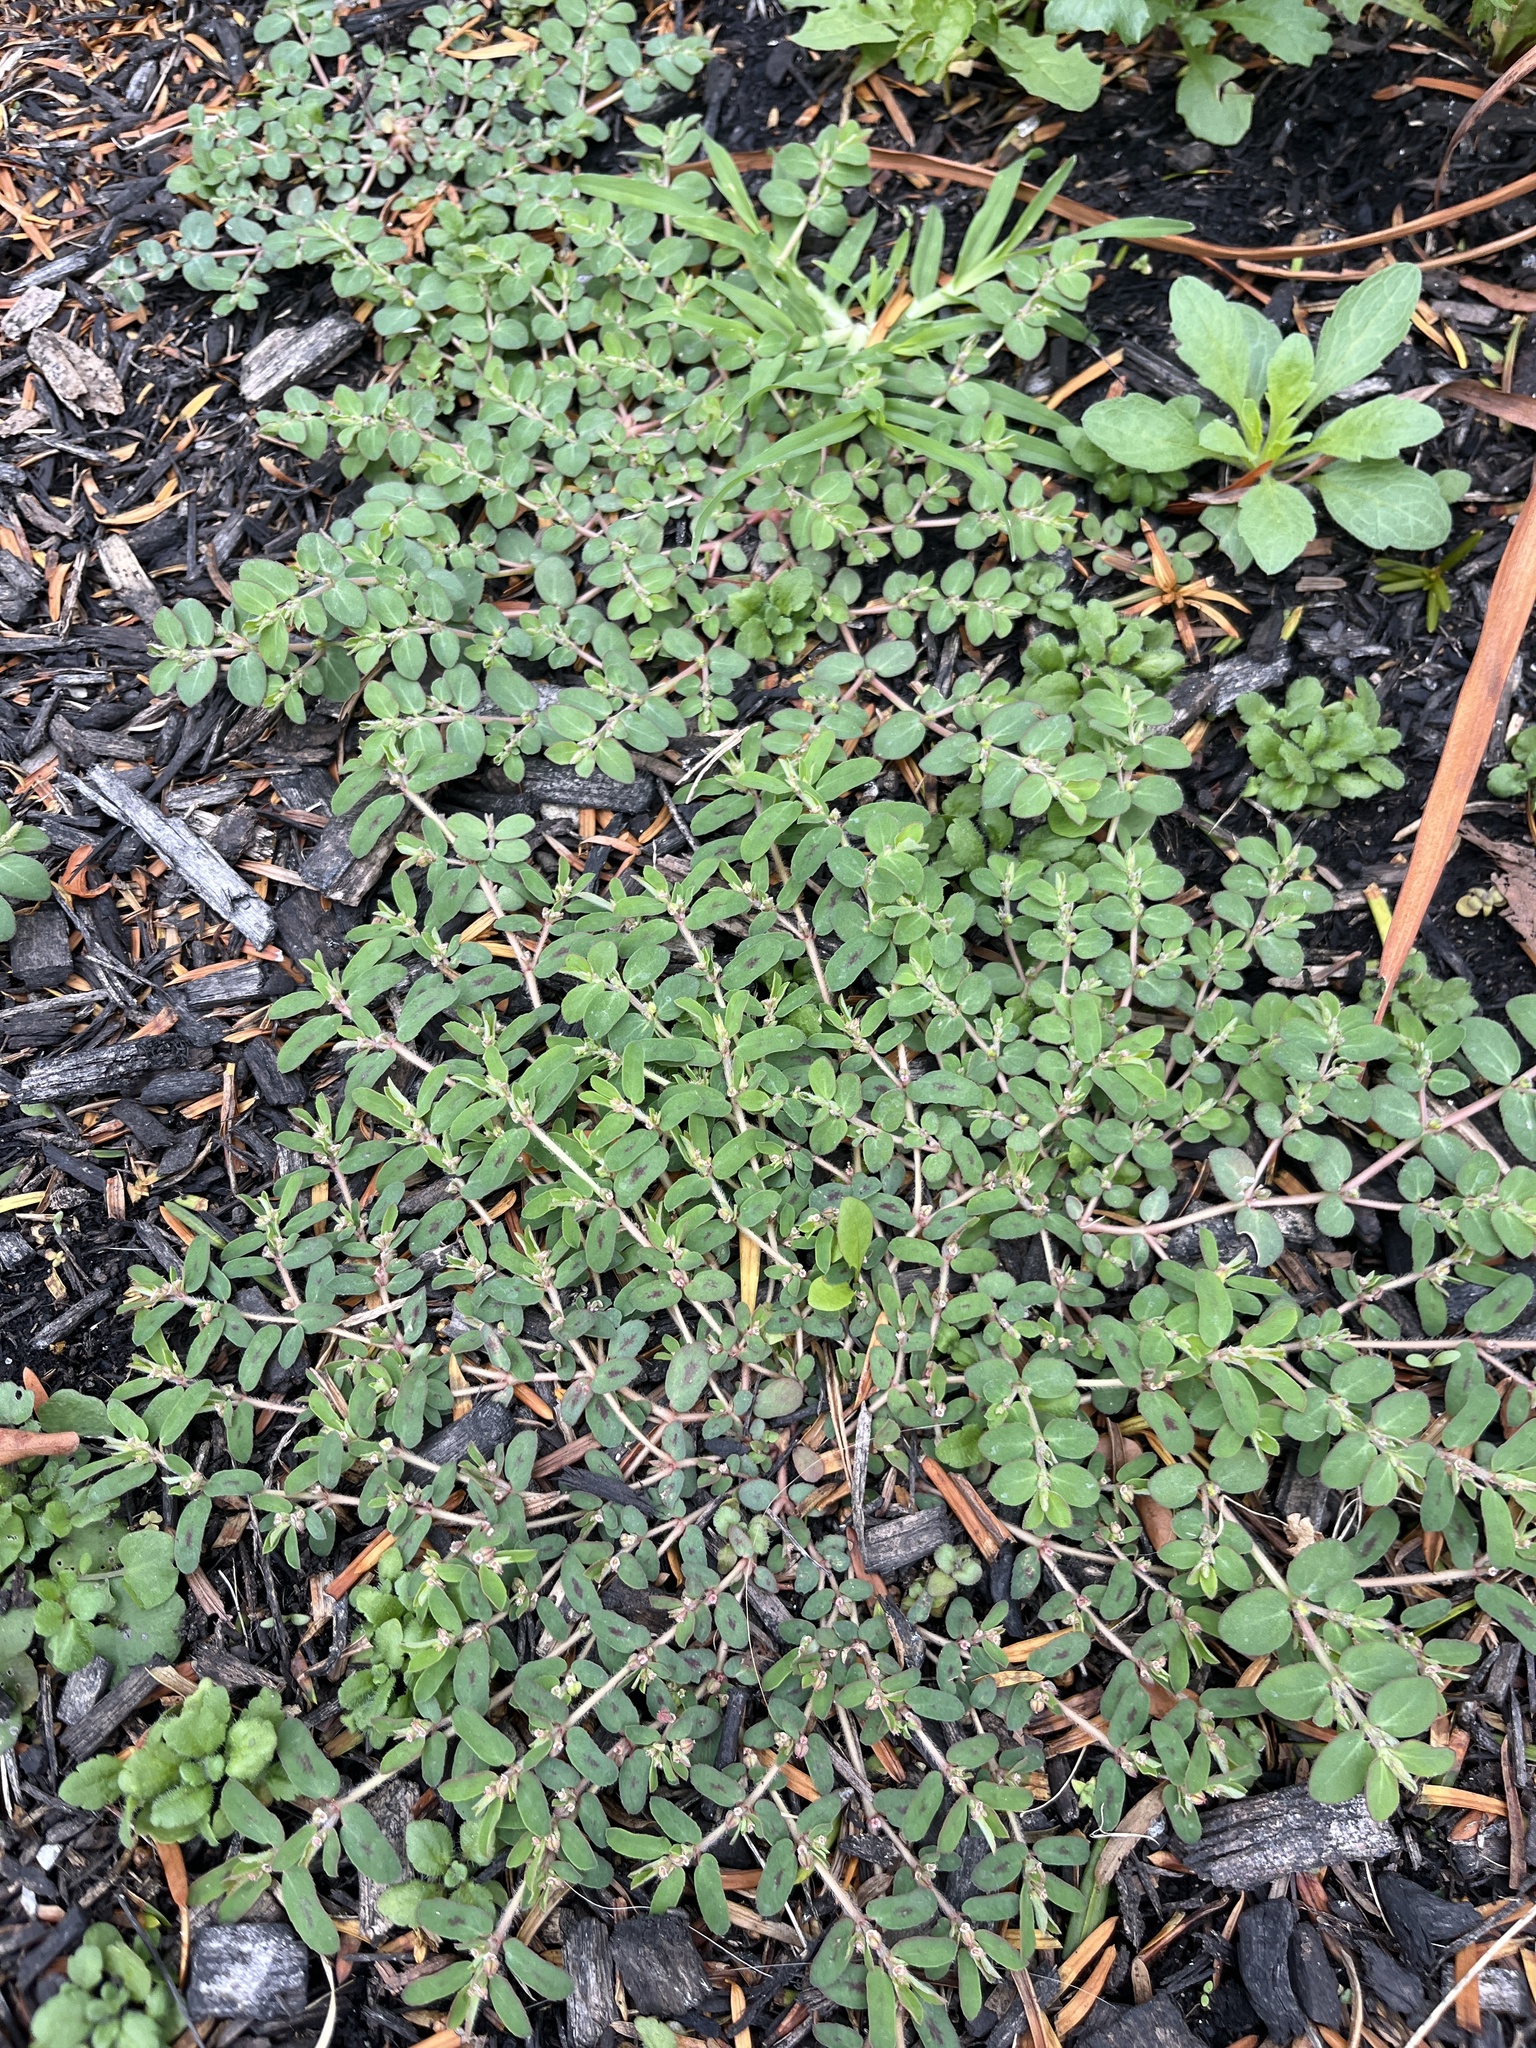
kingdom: Plantae
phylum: Tracheophyta
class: Magnoliopsida
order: Malpighiales
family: Euphorbiaceae
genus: Euphorbia
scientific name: Euphorbia maculata
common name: Spotted spurge
